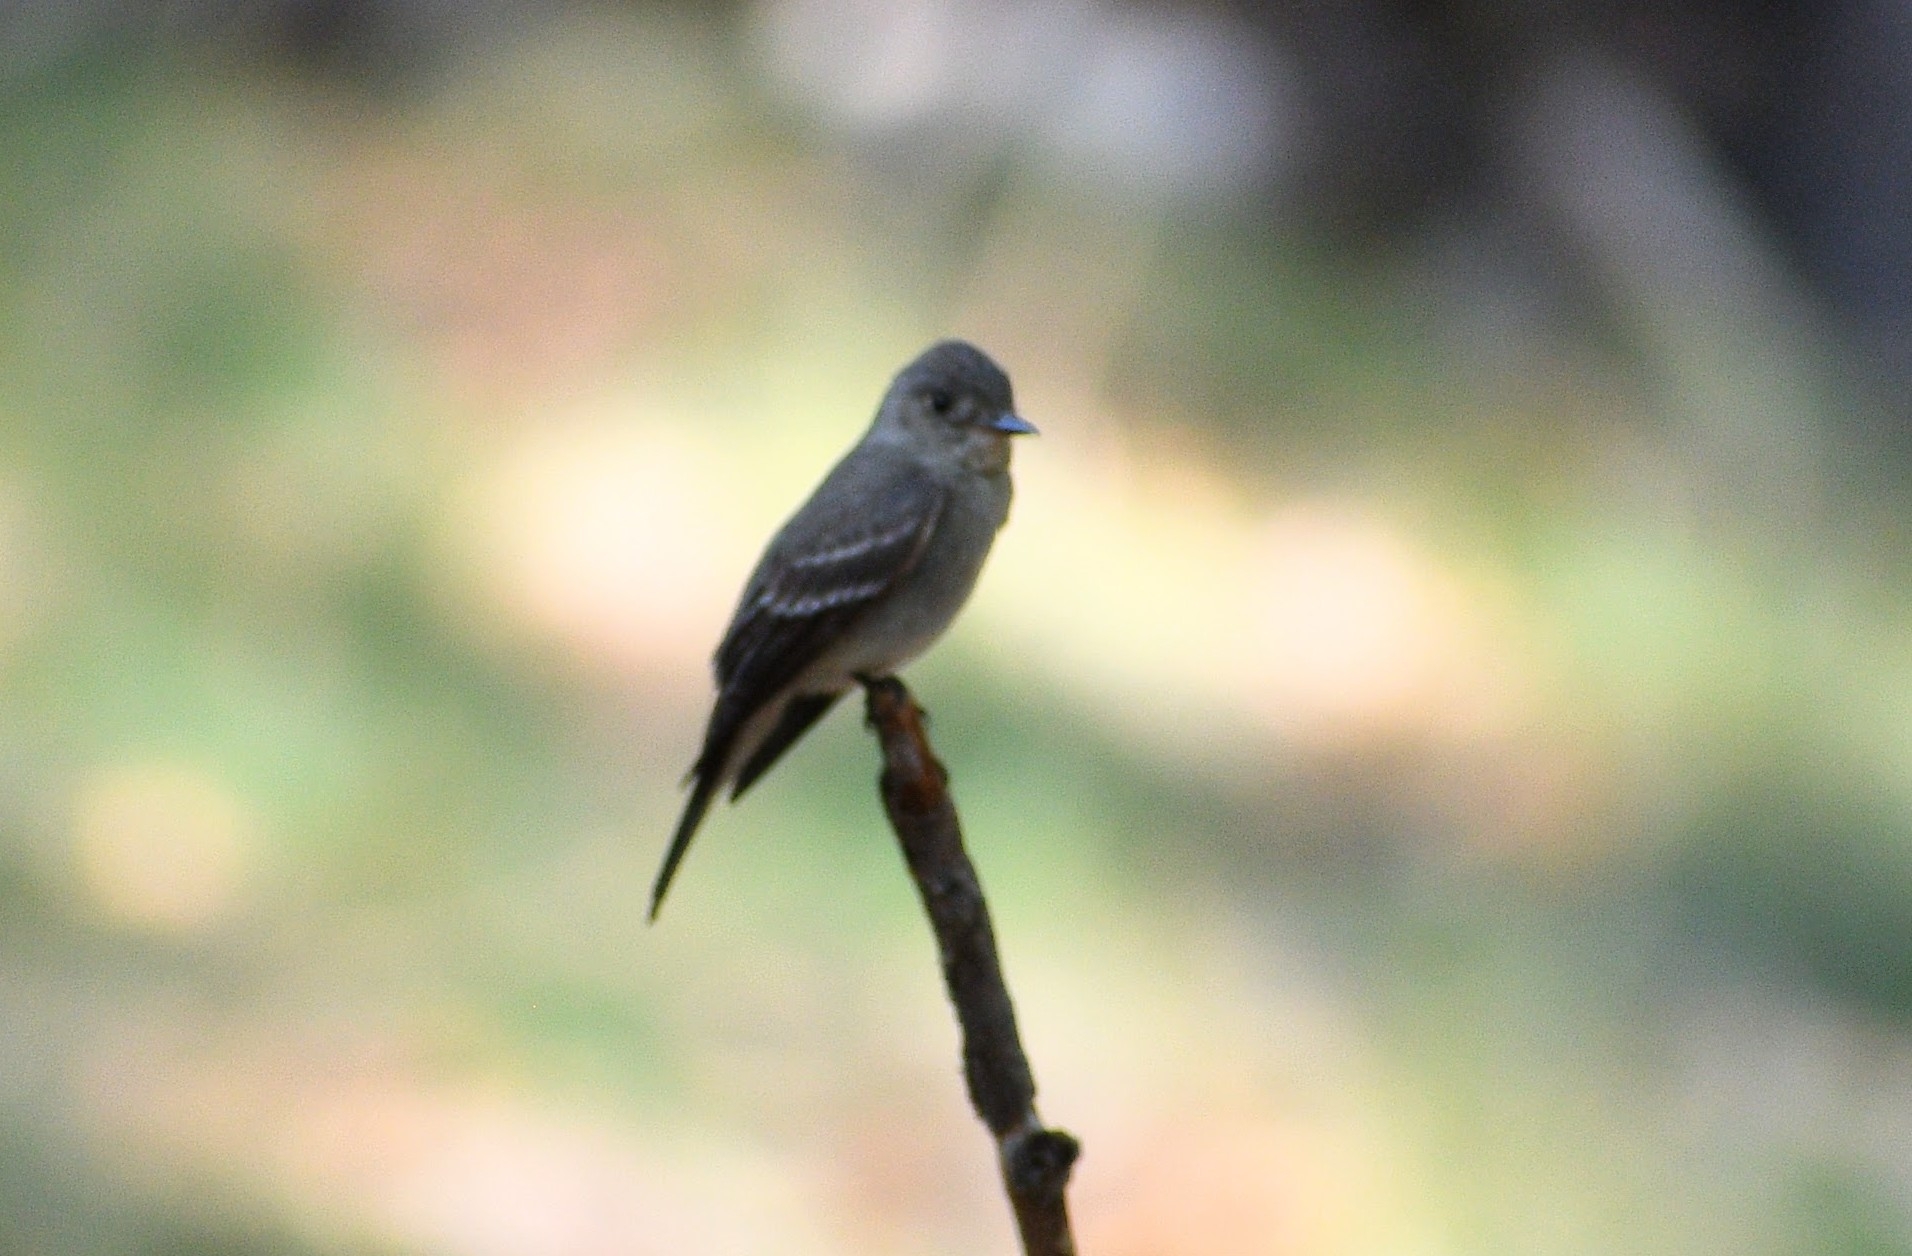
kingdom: Animalia
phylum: Chordata
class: Aves
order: Passeriformes
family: Tyrannidae
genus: Contopus
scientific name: Contopus sordidulus
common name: Western wood-pewee
